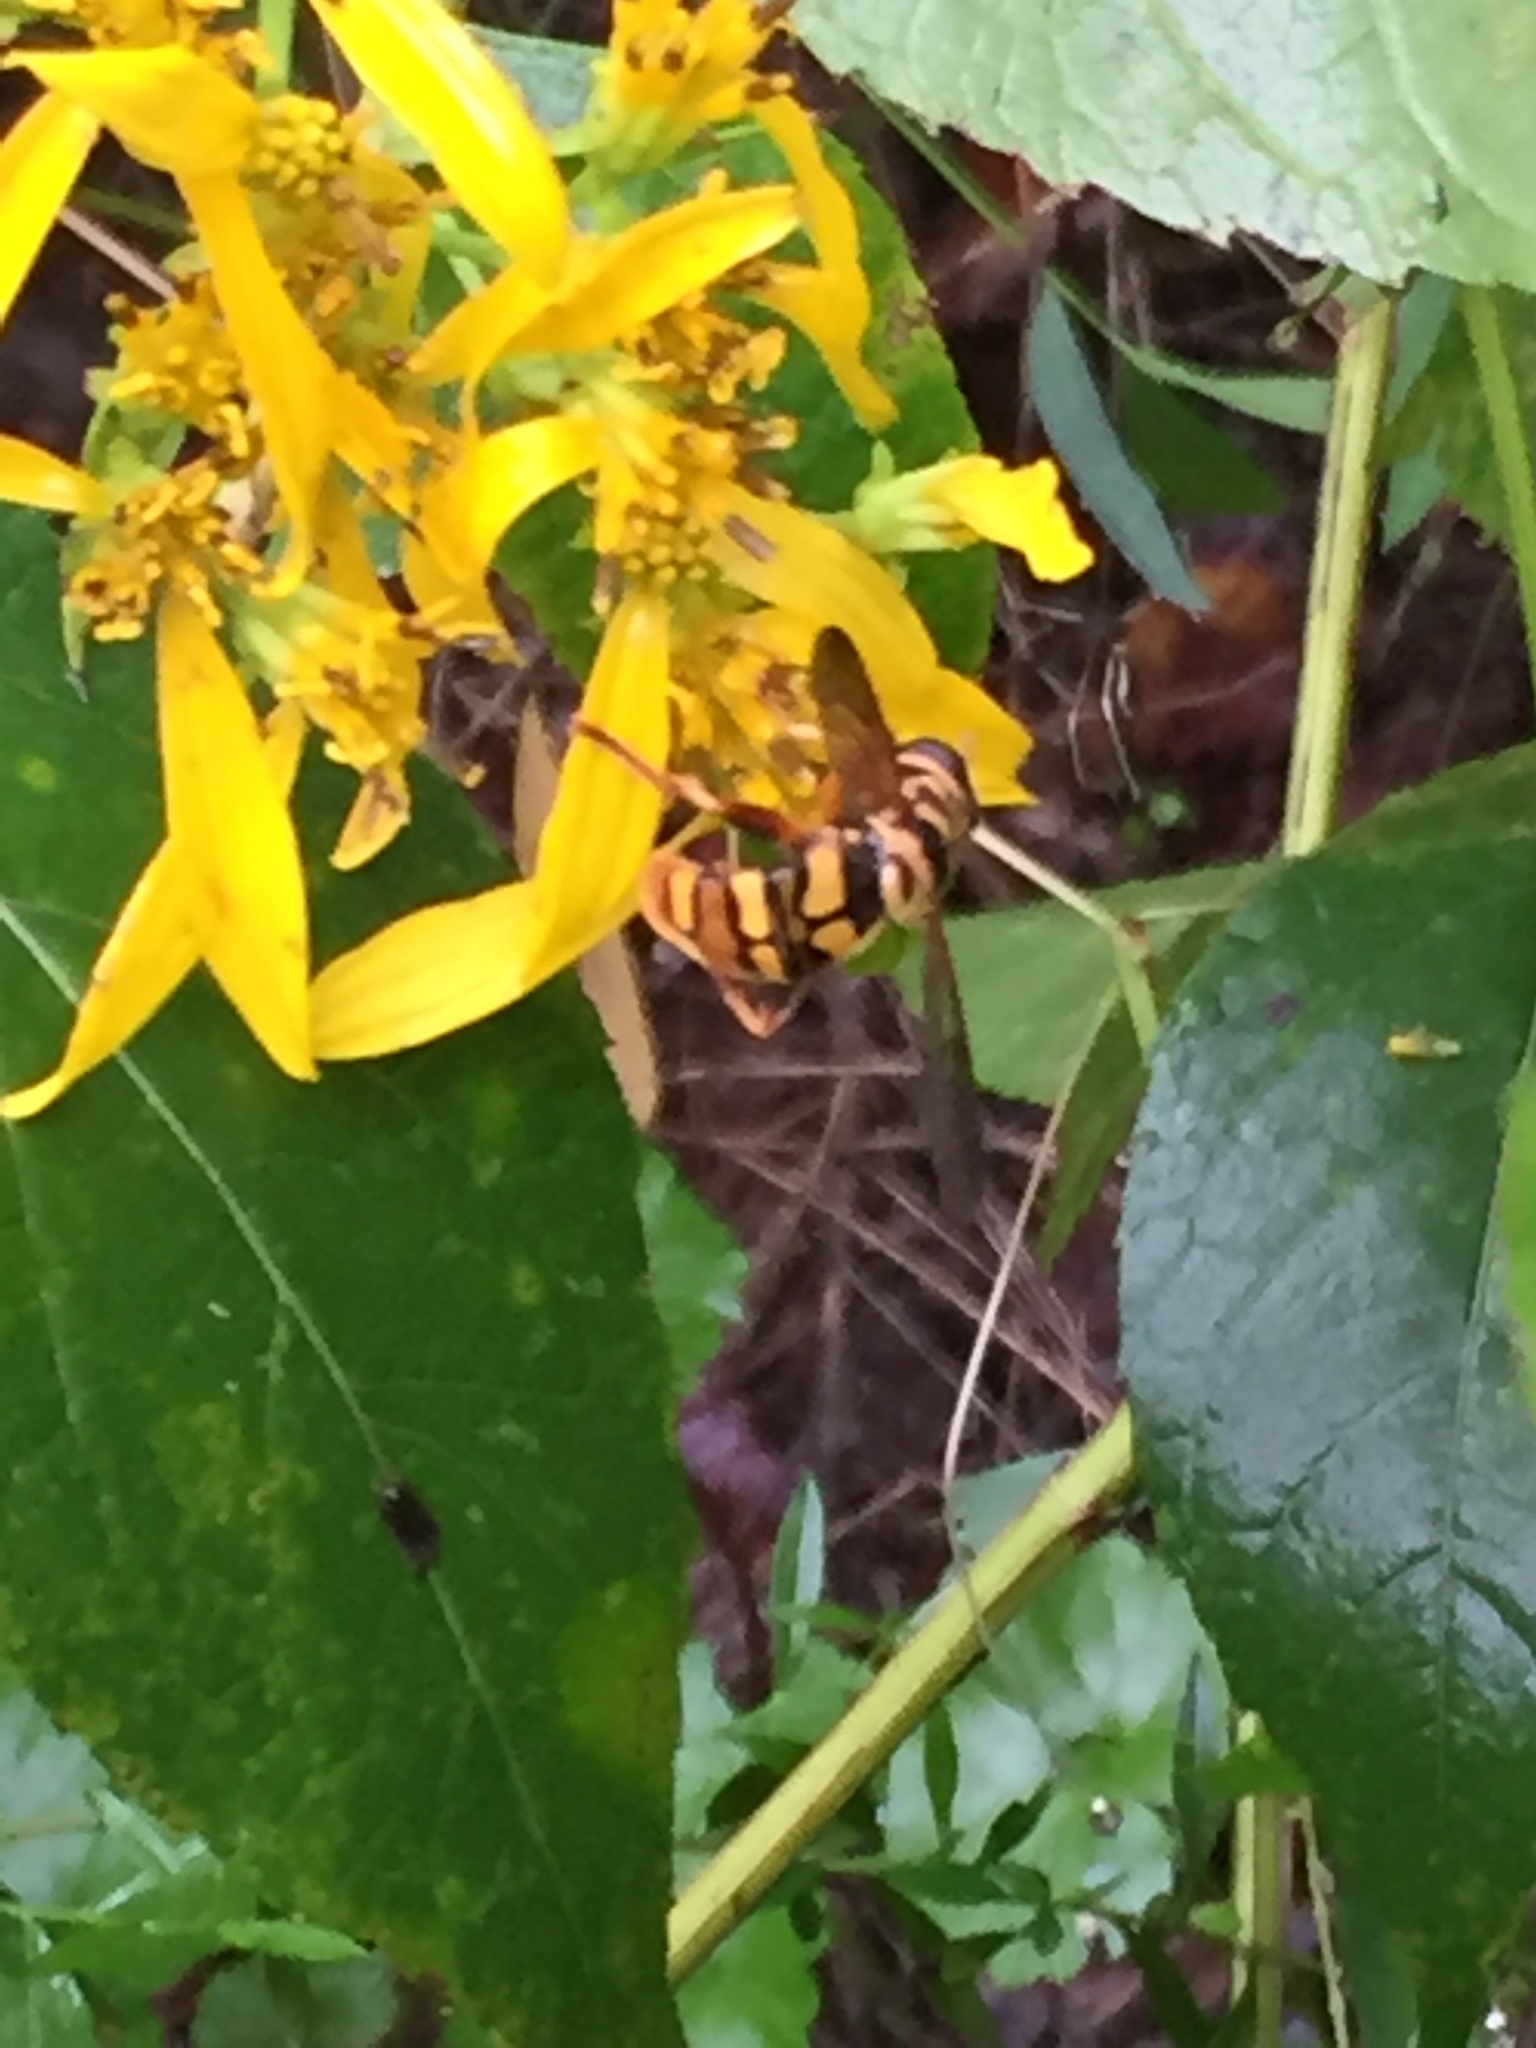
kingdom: Animalia
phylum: Arthropoda
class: Insecta
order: Diptera
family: Syrphidae
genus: Milesia
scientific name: Milesia virginiensis
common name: Virginia giant
